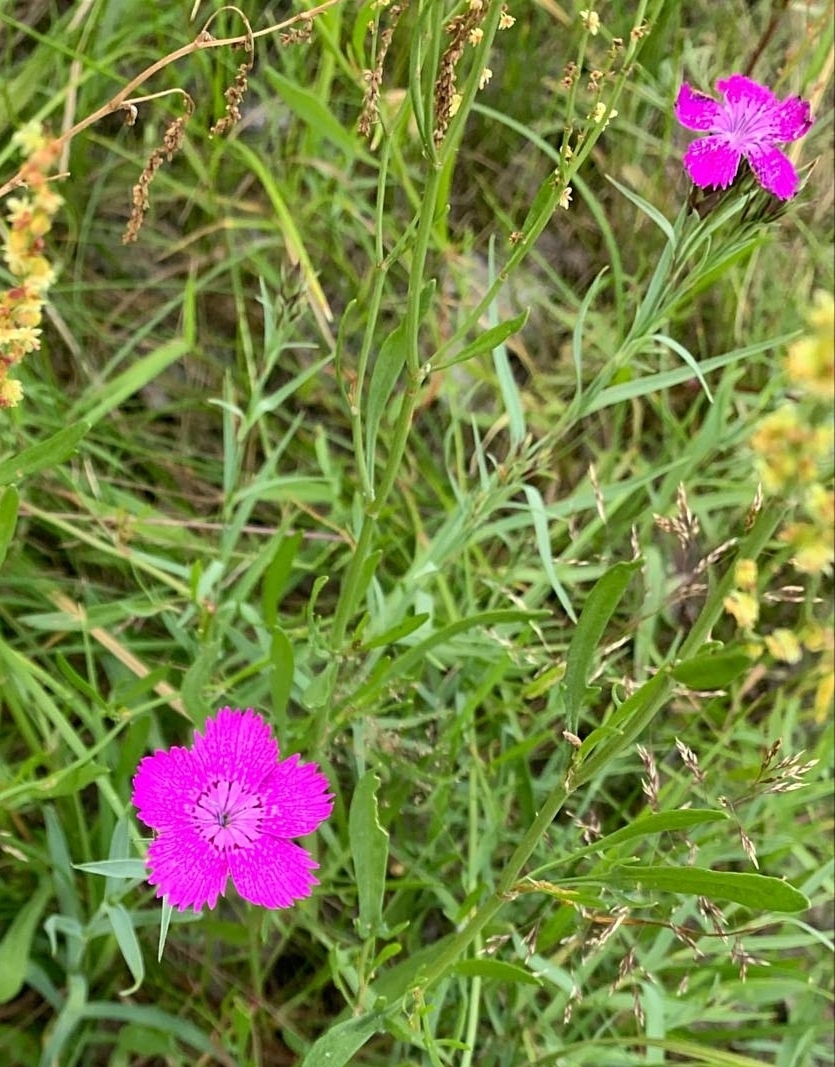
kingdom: Plantae
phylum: Tracheophyta
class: Magnoliopsida
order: Caryophyllales
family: Caryophyllaceae
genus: Dianthus
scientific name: Dianthus chinensis
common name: Rainbow pink
